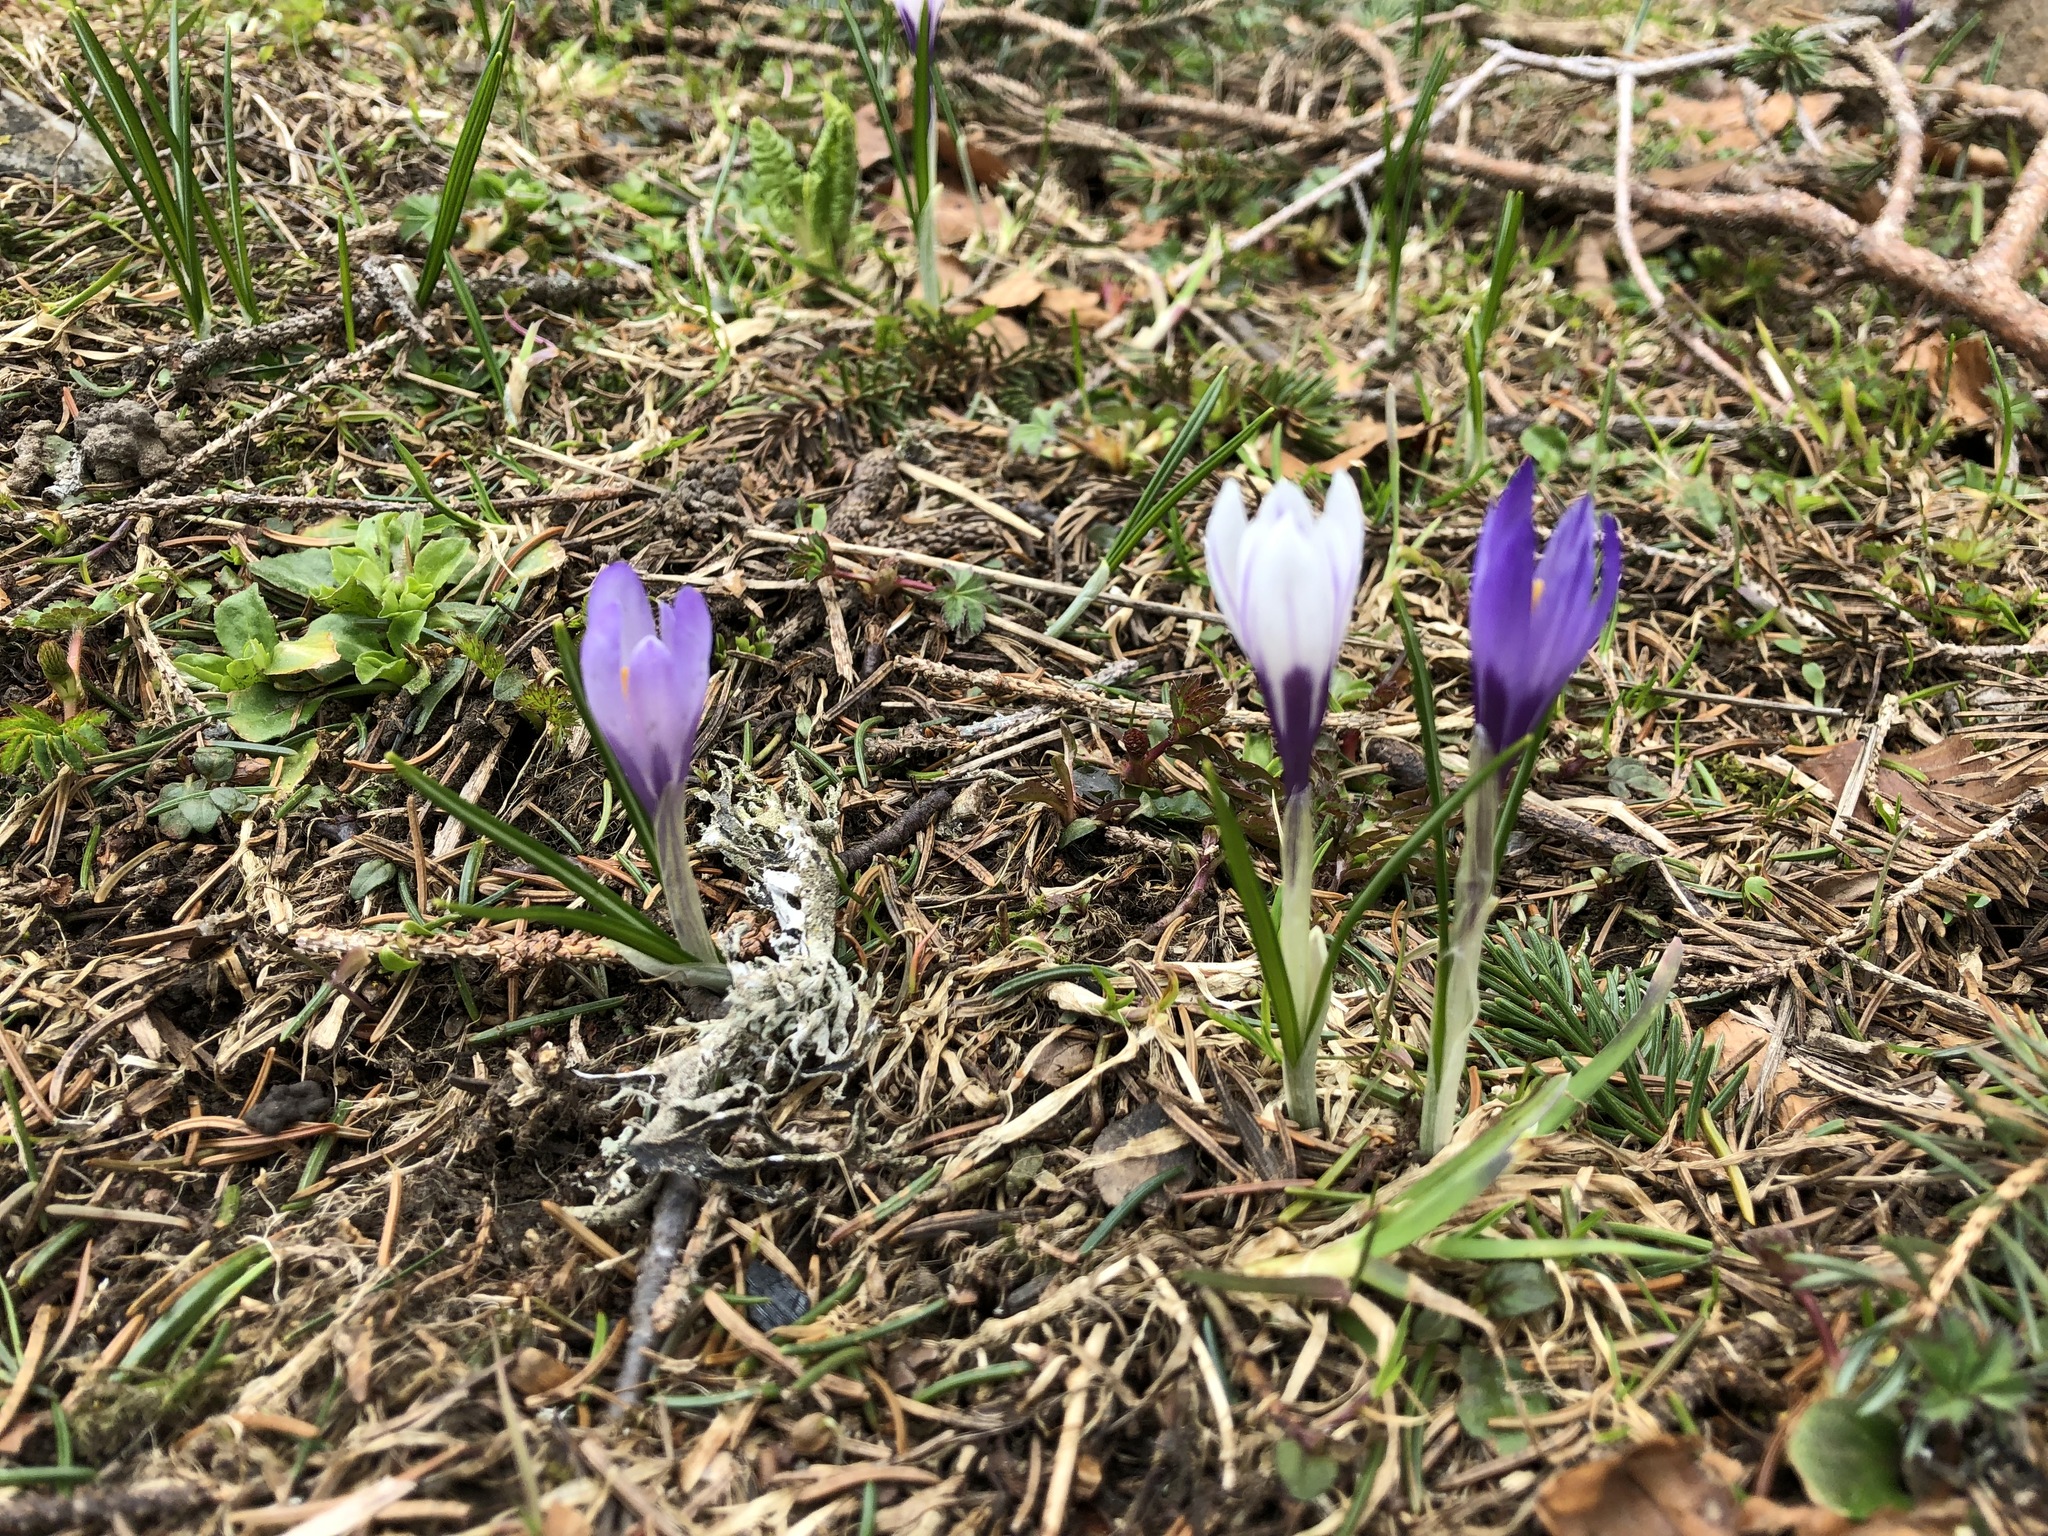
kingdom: Plantae
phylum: Tracheophyta
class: Liliopsida
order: Asparagales
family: Iridaceae
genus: Crocus
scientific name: Crocus vernus
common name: Spring crocus
